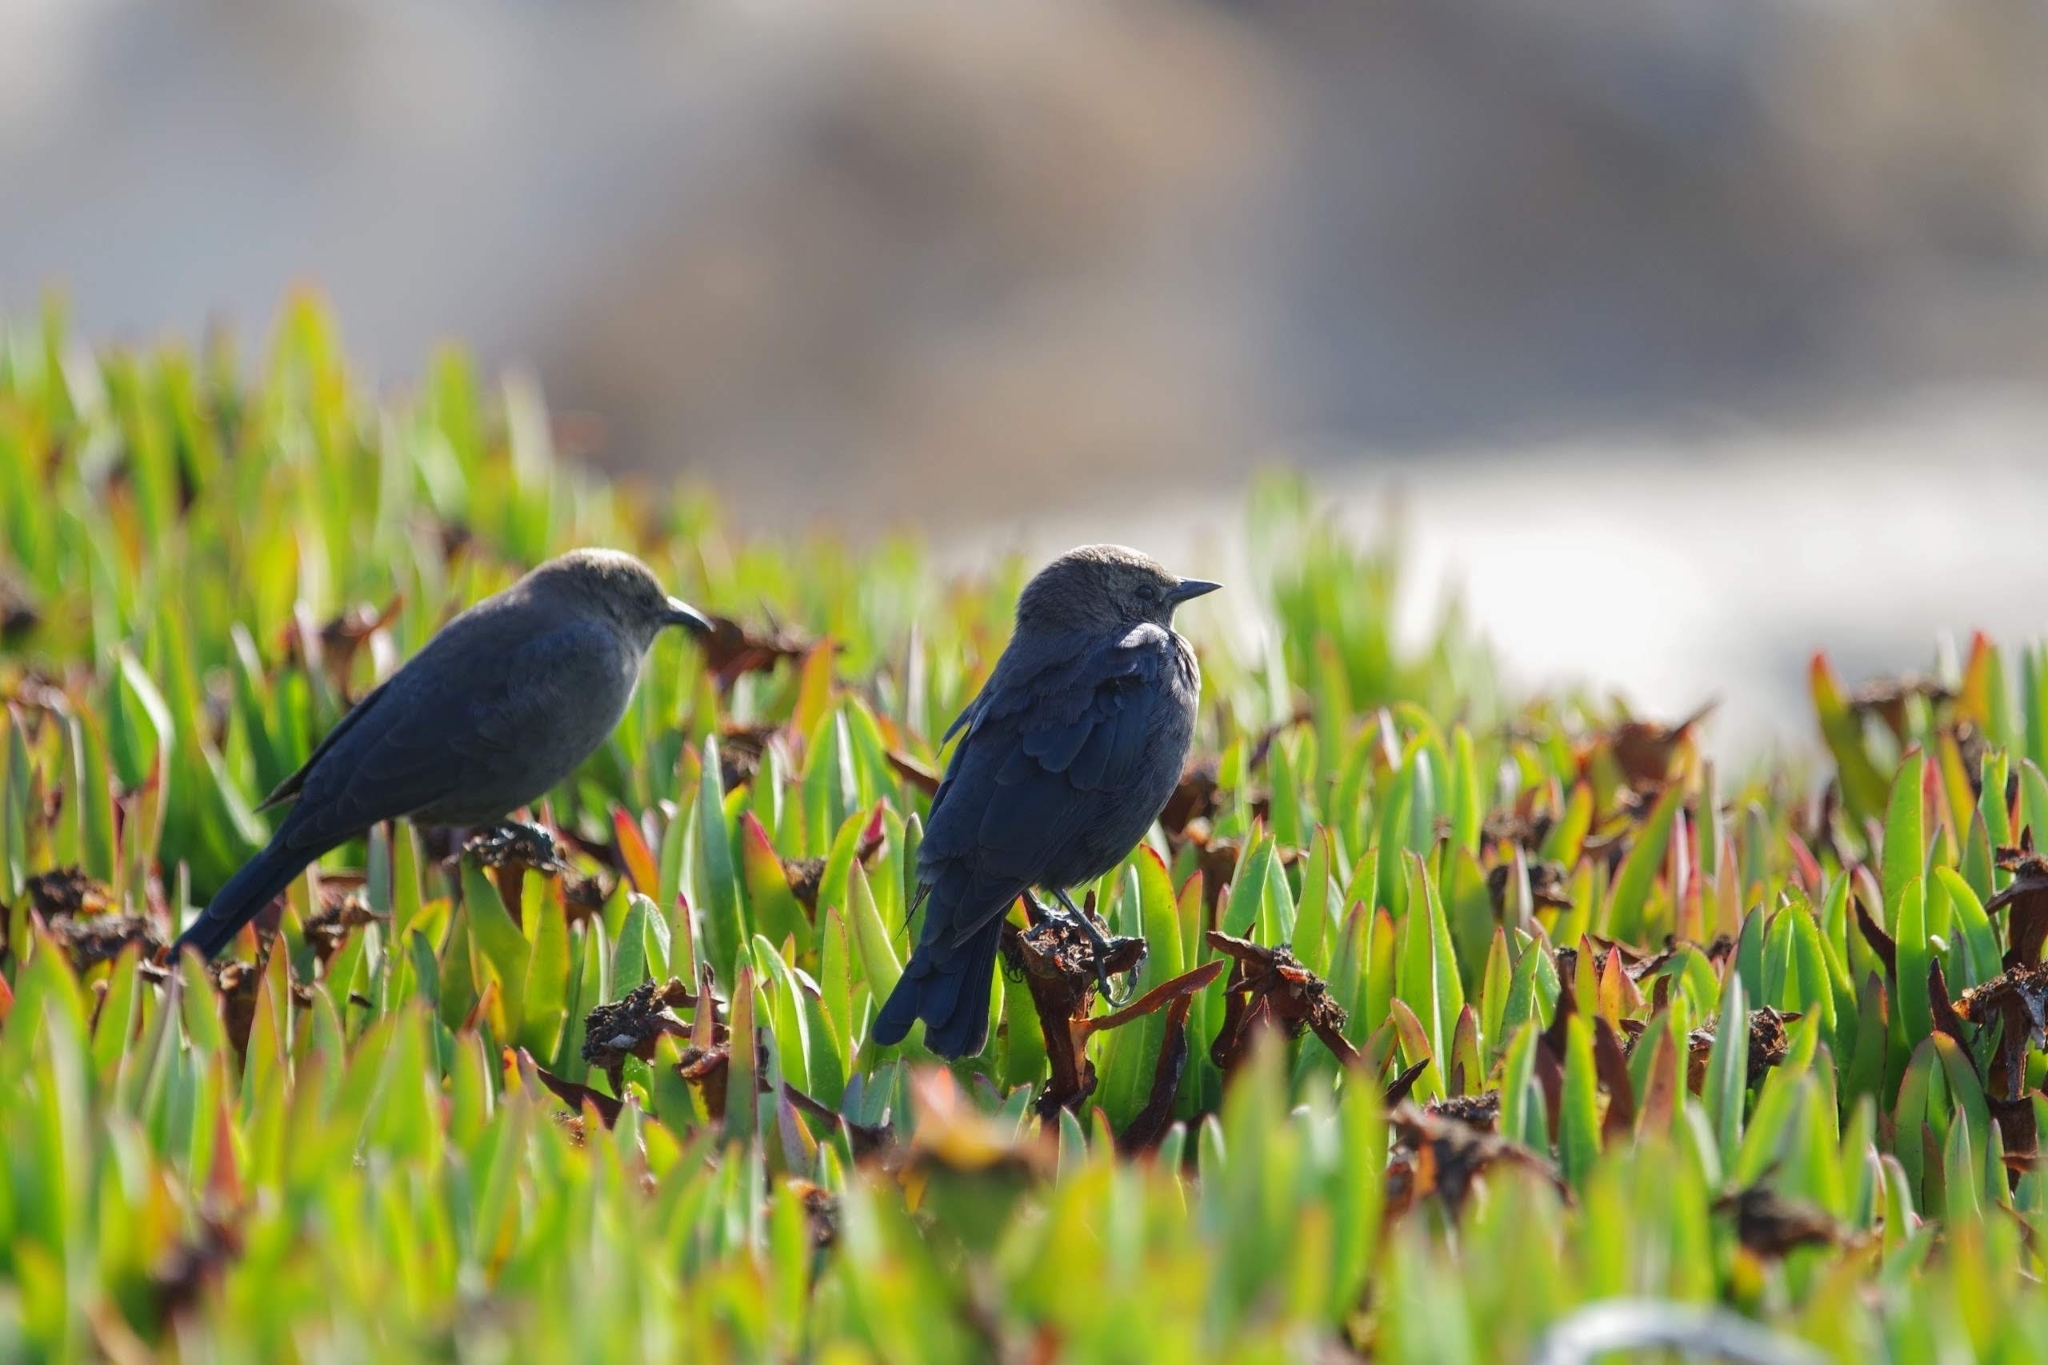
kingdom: Animalia
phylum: Chordata
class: Aves
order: Passeriformes
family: Icteridae
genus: Euphagus
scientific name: Euphagus cyanocephalus
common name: Brewer's blackbird
